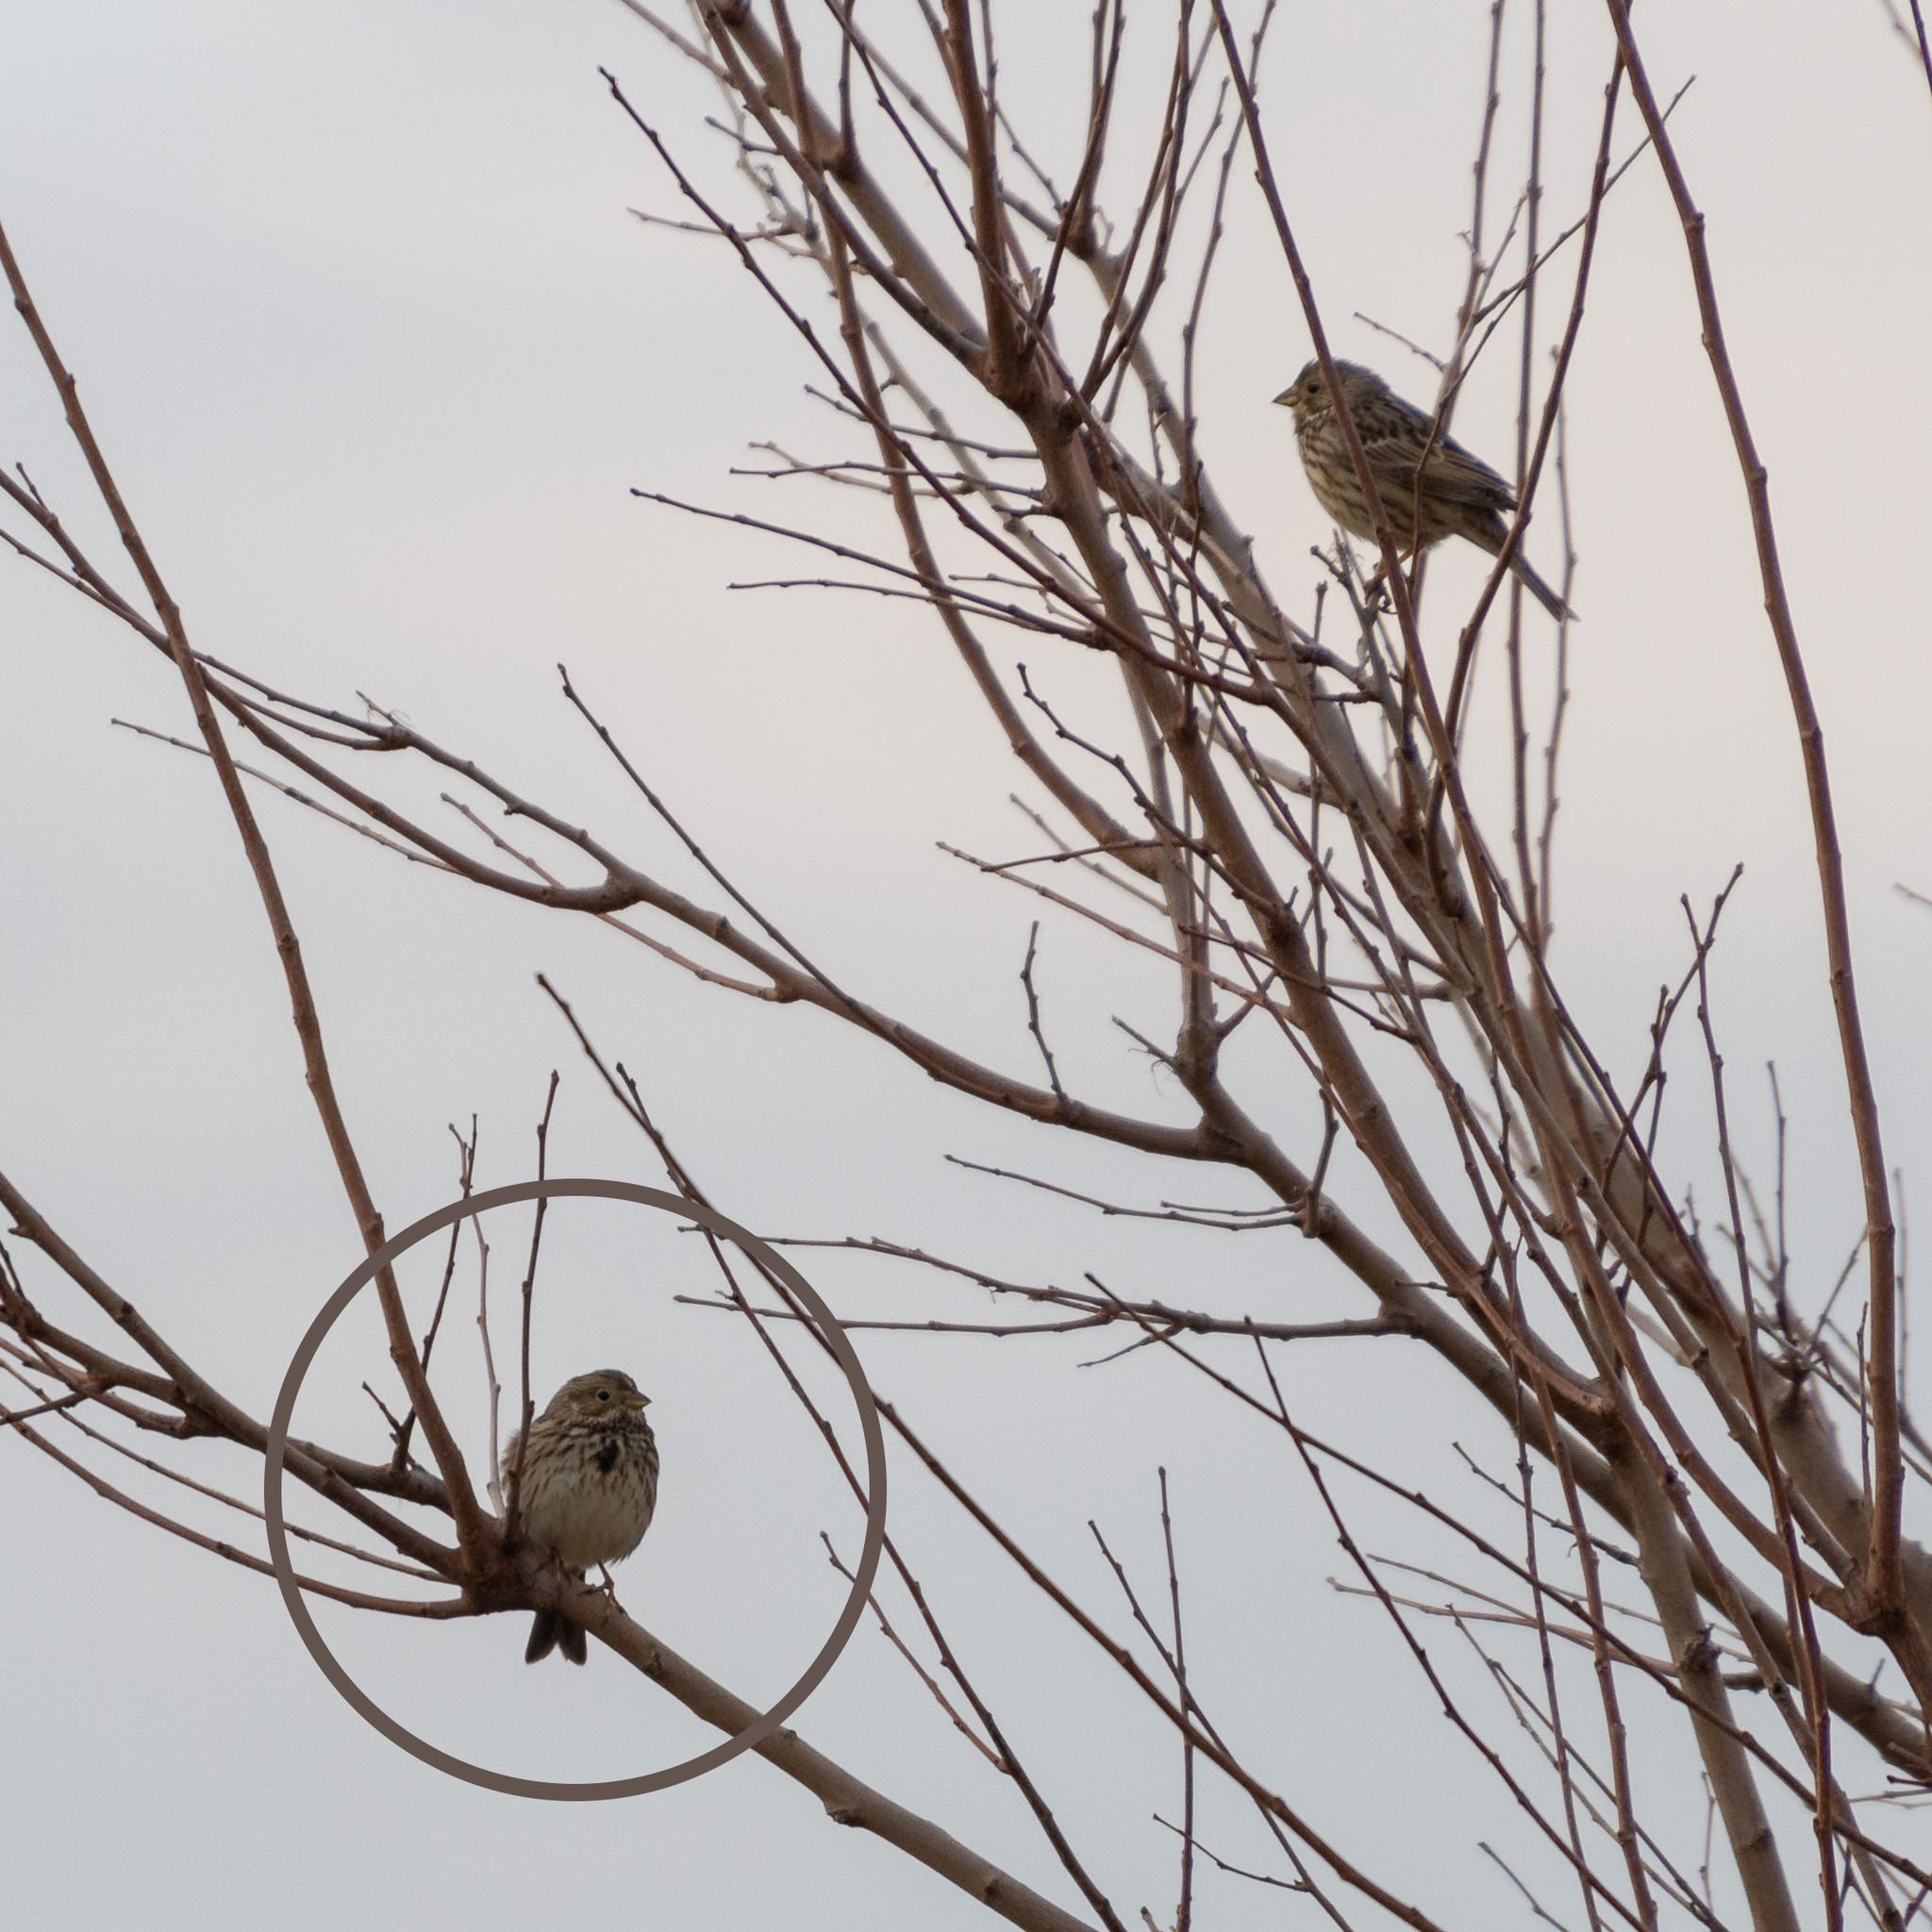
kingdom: Animalia
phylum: Chordata
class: Aves
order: Passeriformes
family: Emberizidae
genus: Emberiza
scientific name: Emberiza calandra
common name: Corn bunting
